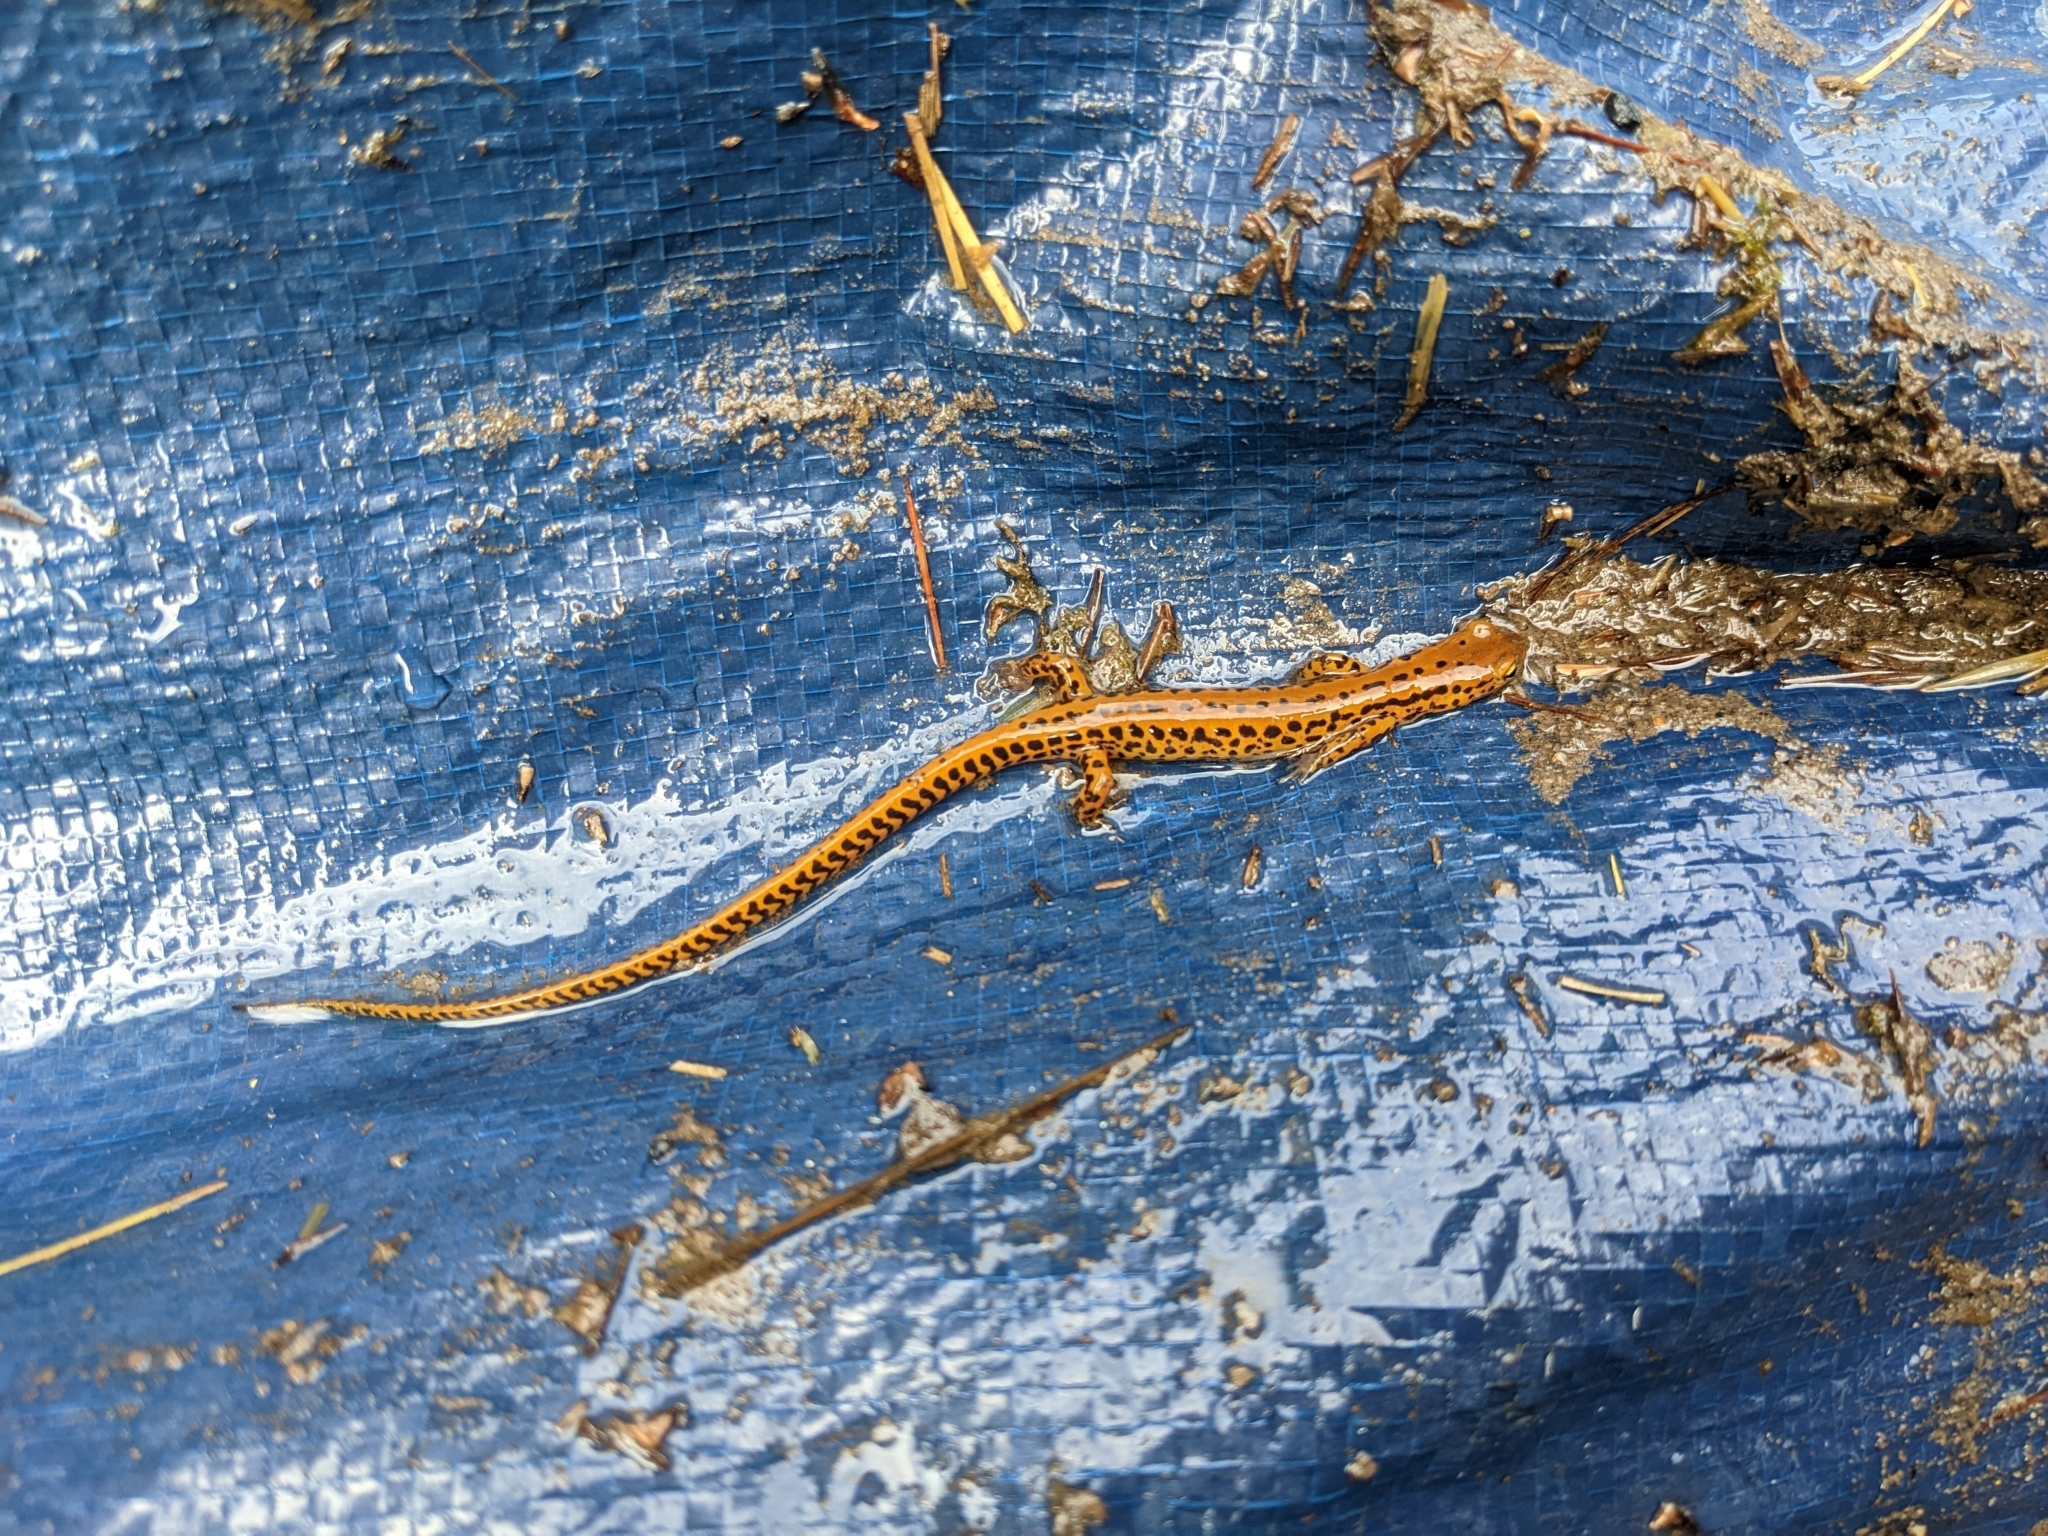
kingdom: Animalia
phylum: Chordata
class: Amphibia
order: Caudata
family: Plethodontidae
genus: Eurycea
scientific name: Eurycea longicauda
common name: Long-tailed salamander
